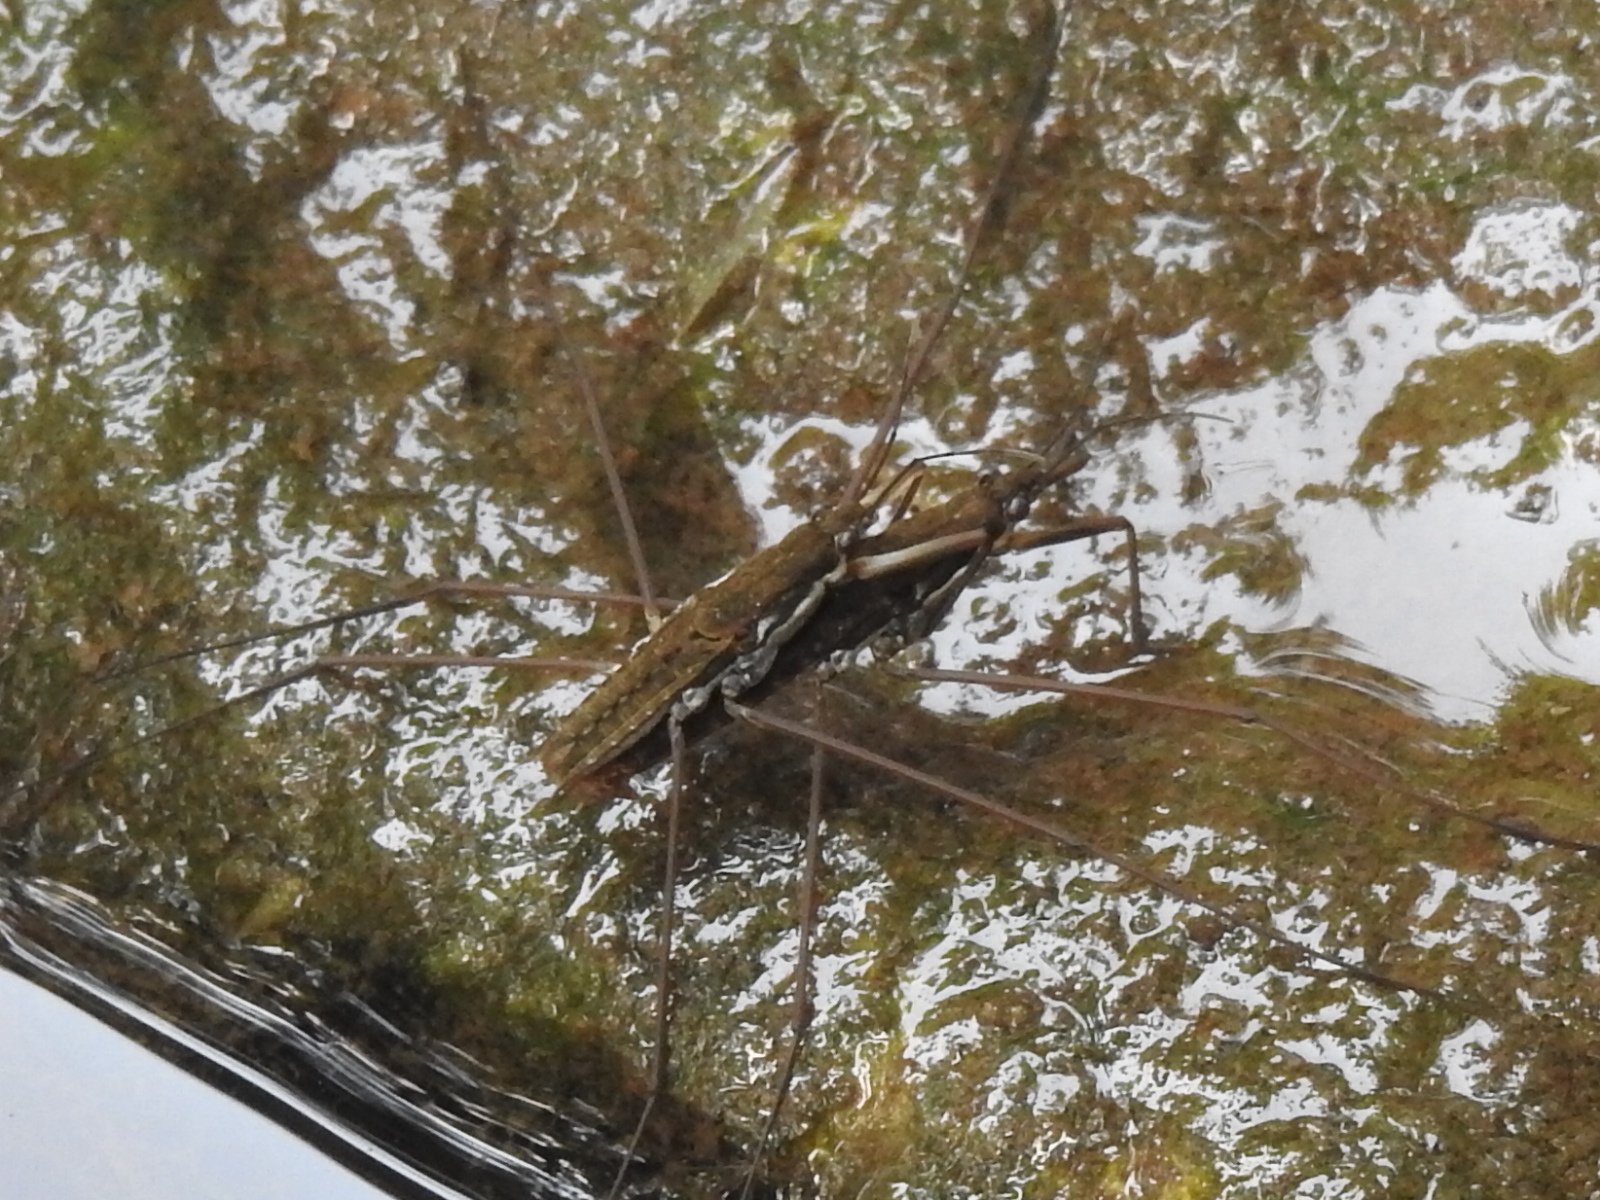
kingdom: Animalia
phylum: Arthropoda
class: Insecta
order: Hemiptera
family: Gerridae
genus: Aquarius
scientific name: Aquarius remigis
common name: Common water strider
